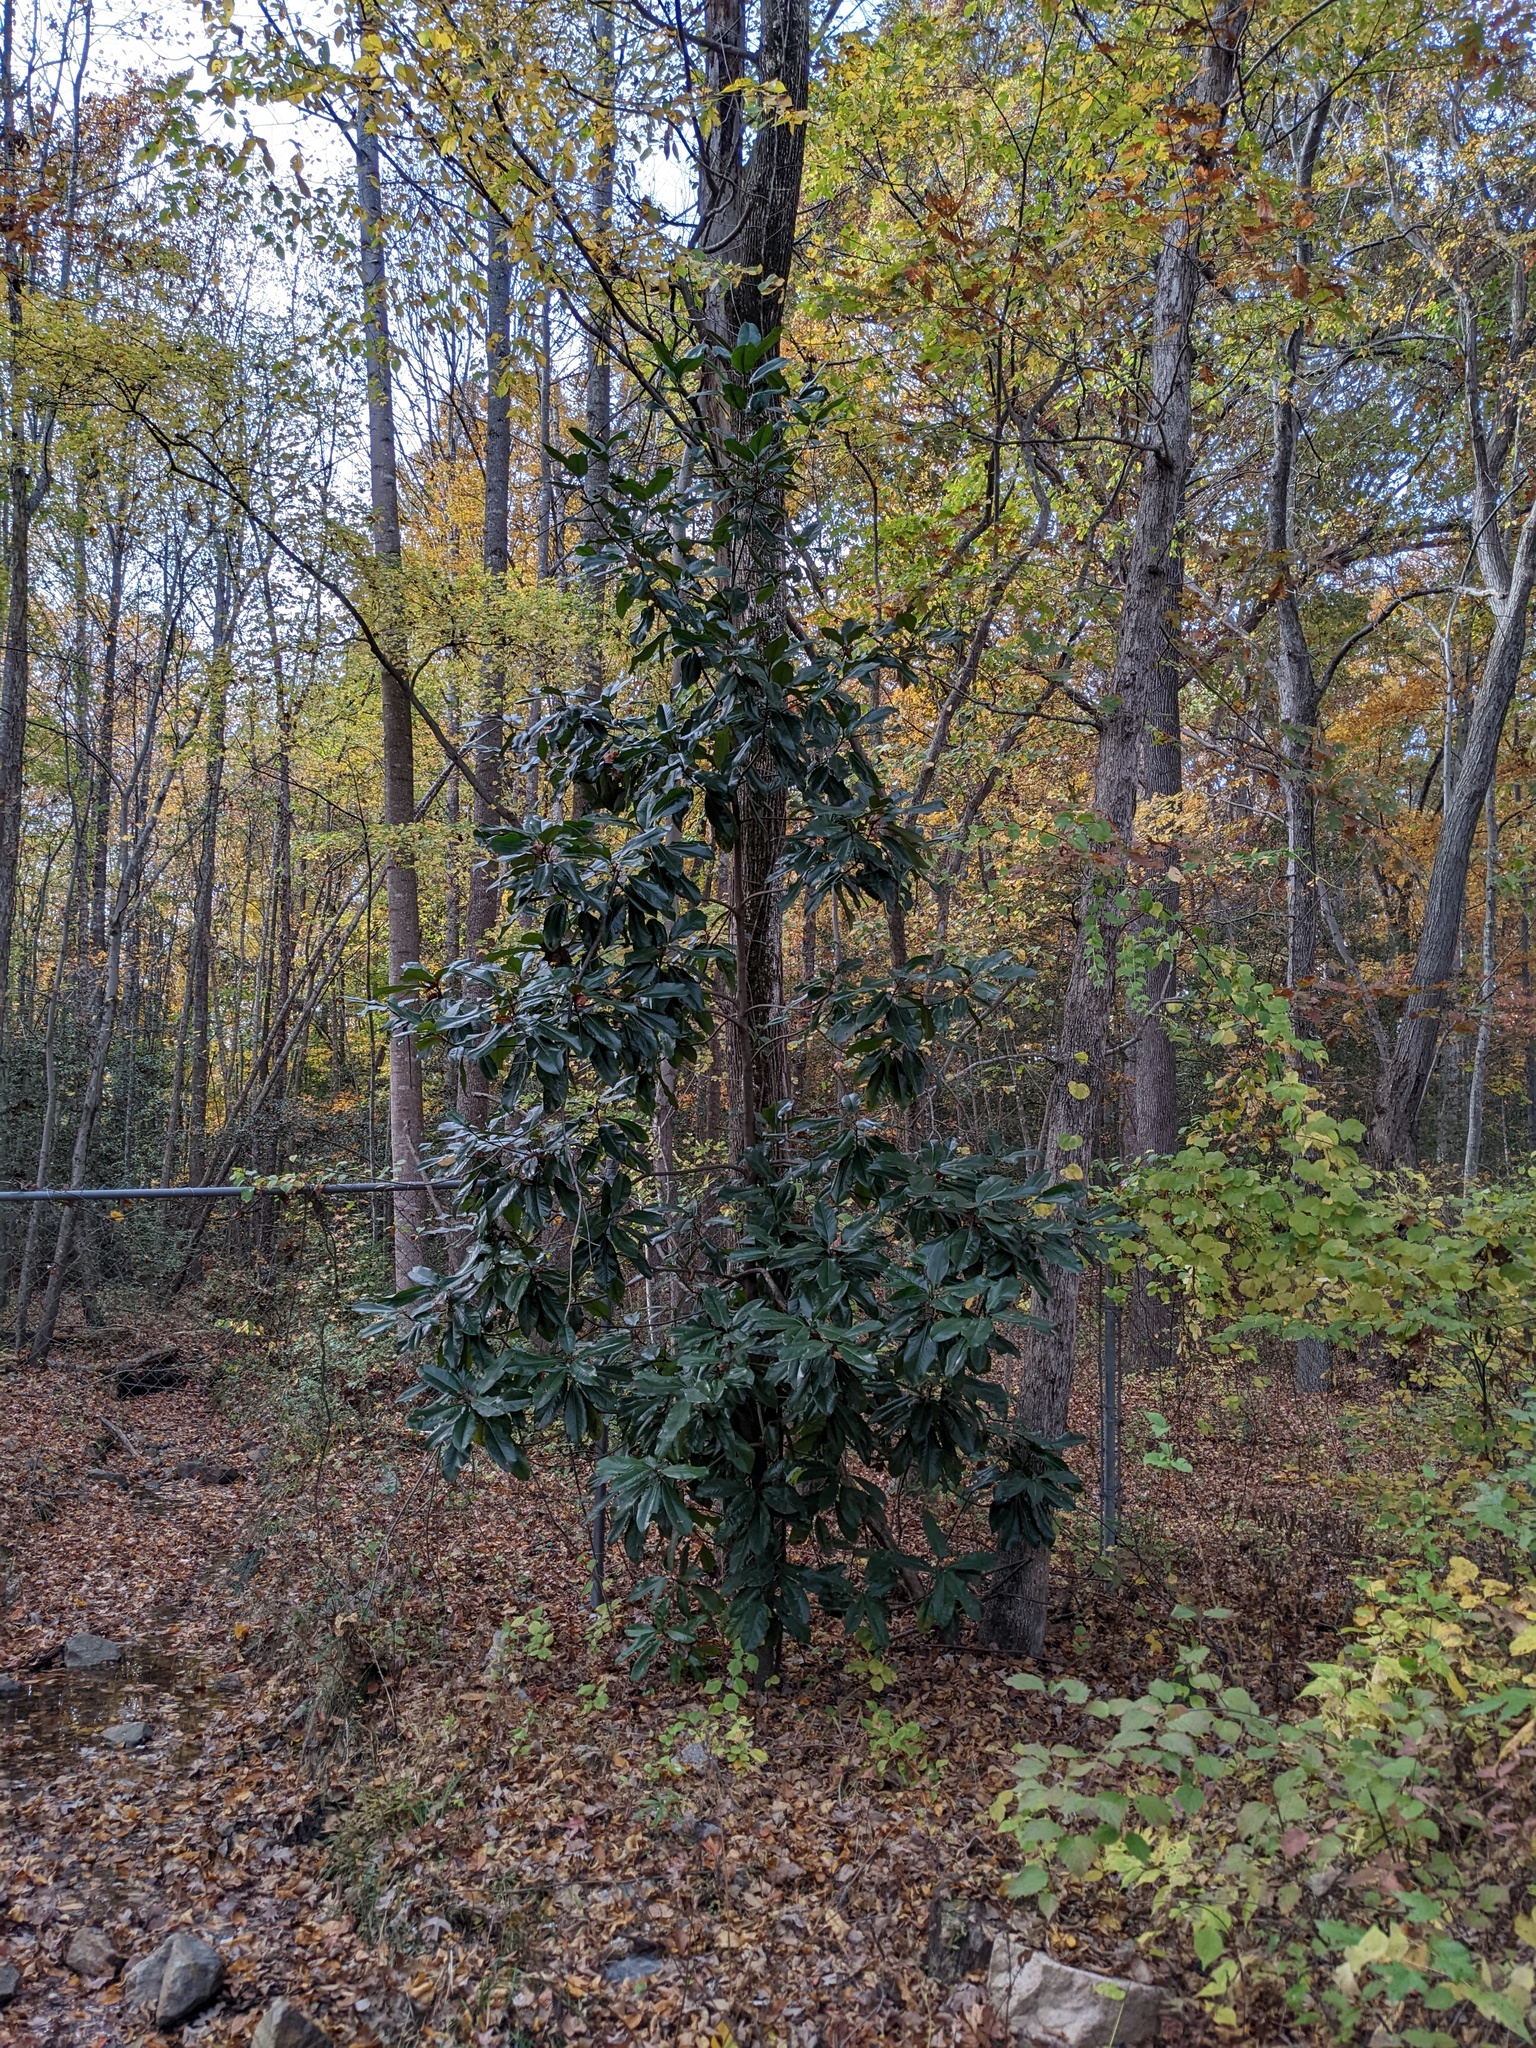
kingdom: Plantae
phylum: Tracheophyta
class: Magnoliopsida
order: Magnoliales
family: Magnoliaceae
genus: Magnolia
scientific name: Magnolia grandiflora
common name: Southern magnolia
